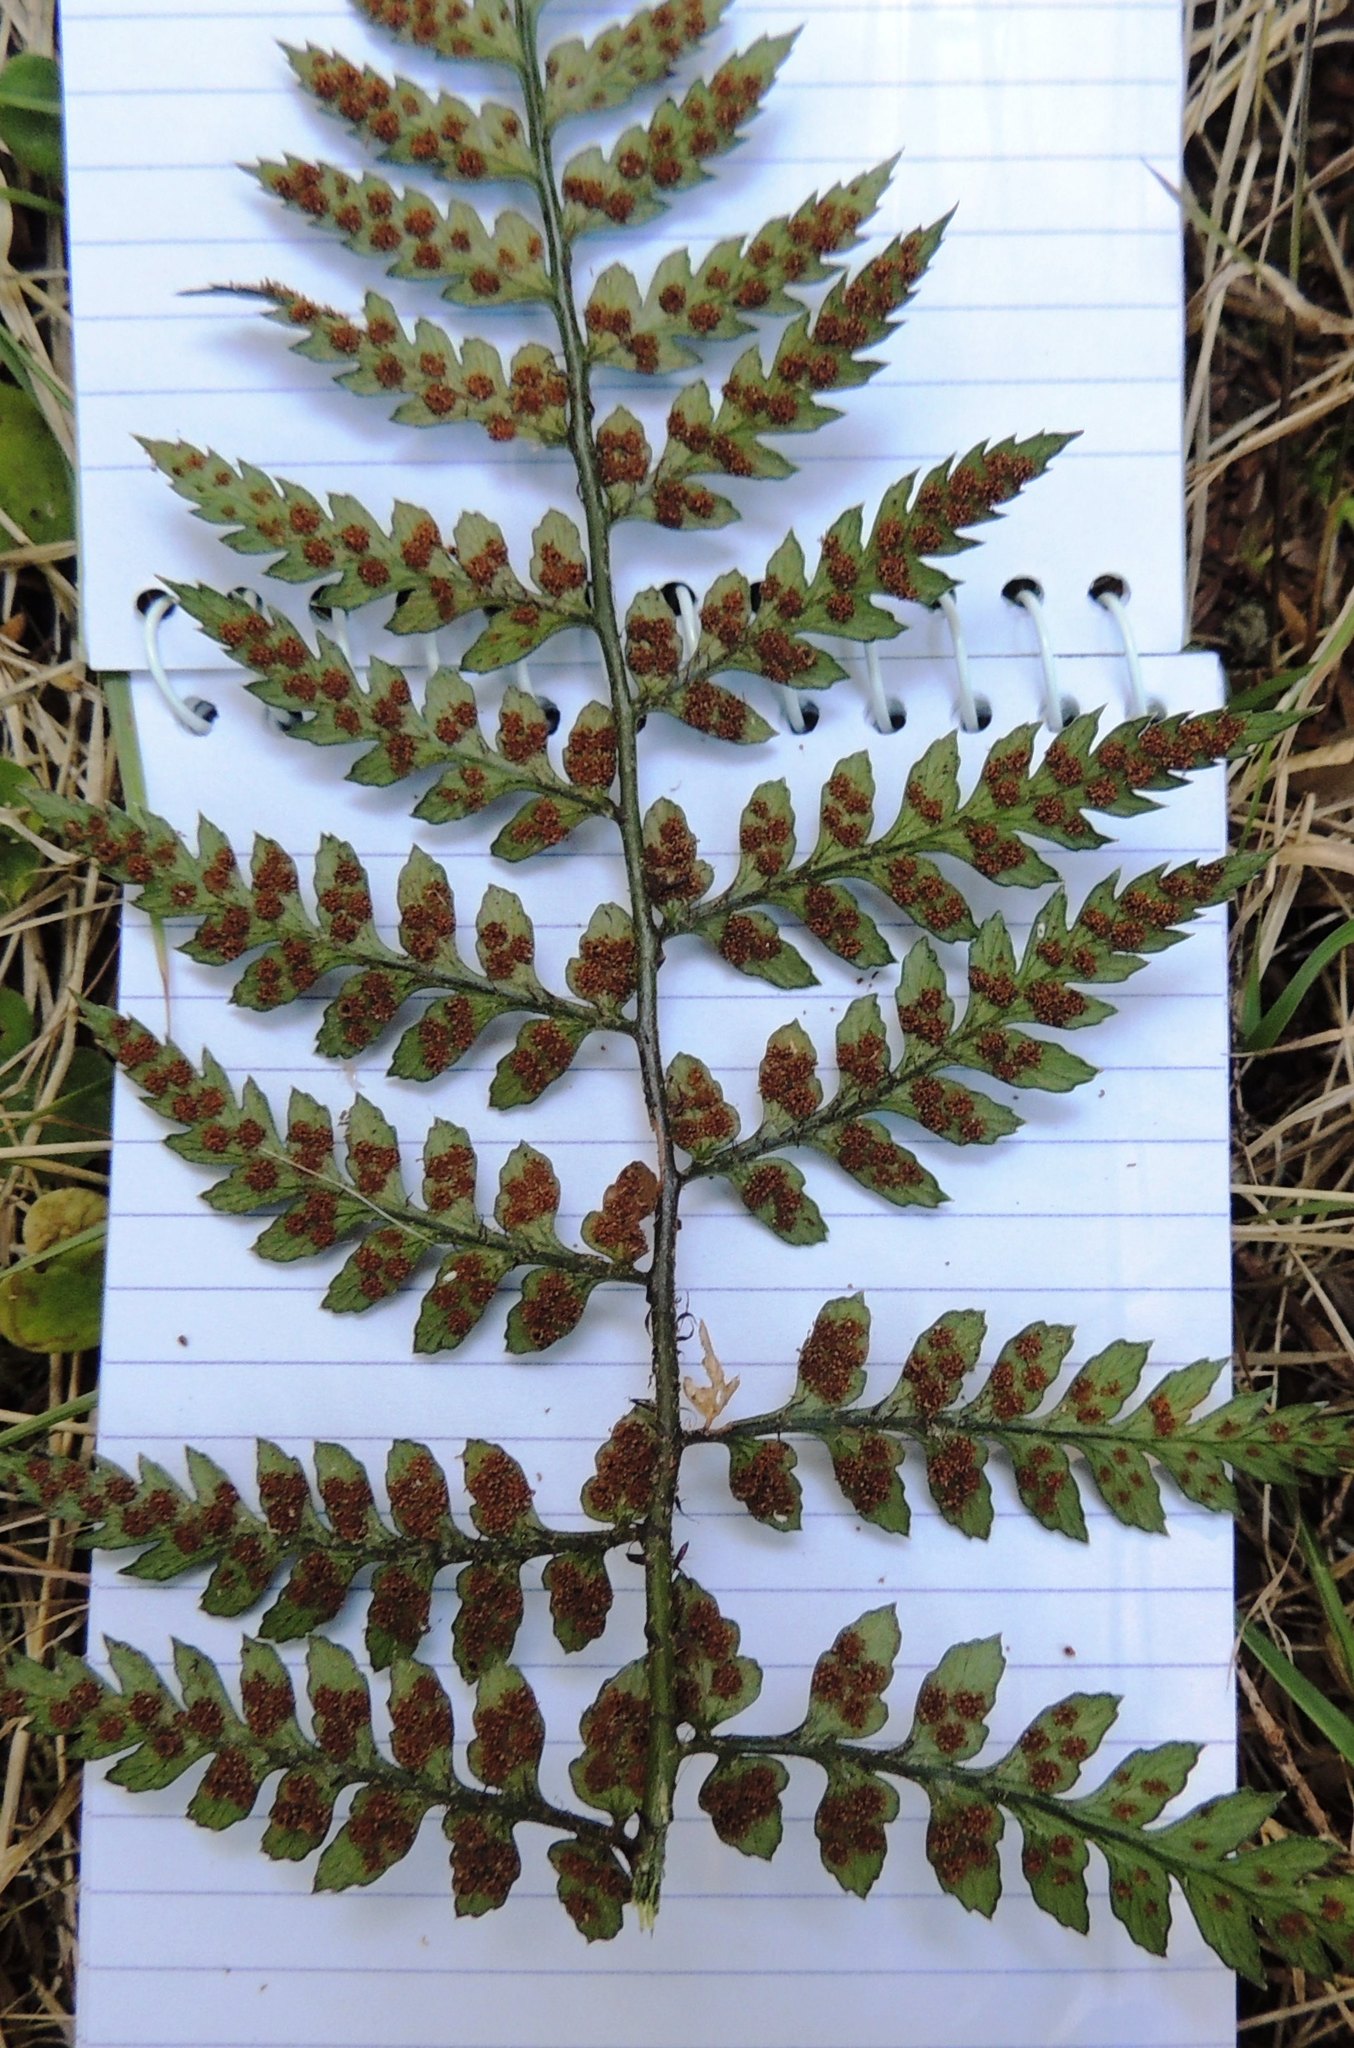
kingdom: Plantae
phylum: Tracheophyta
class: Polypodiopsida
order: Polypodiales
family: Dryopteridaceae
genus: Polystichum
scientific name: Polystichum neozelandicum
